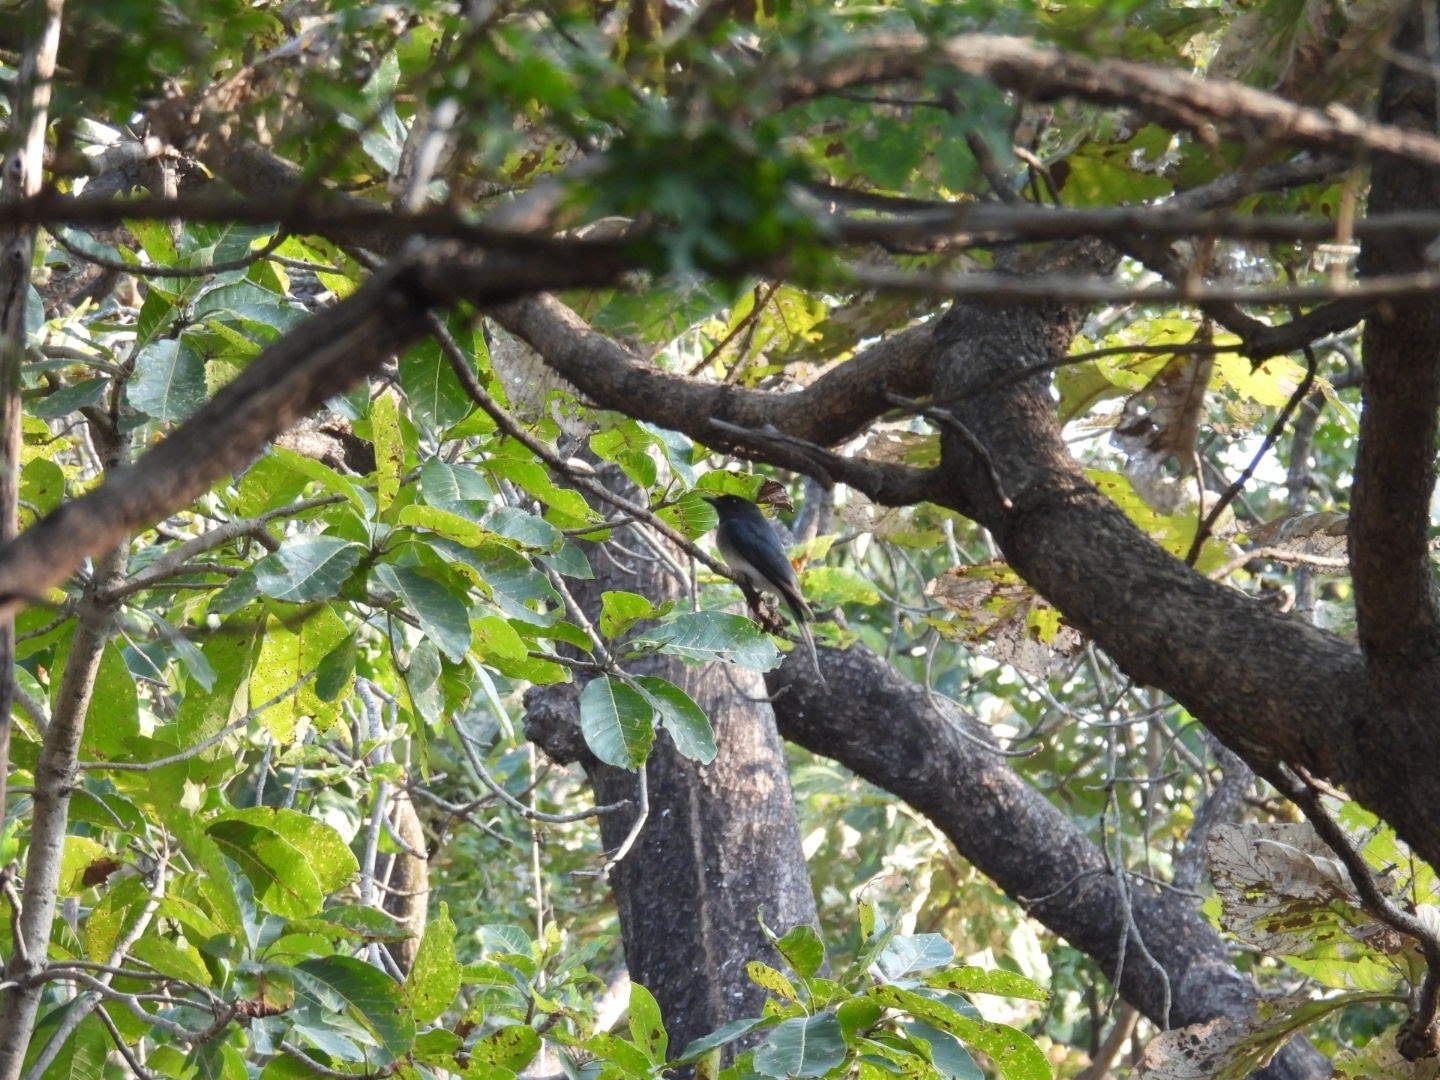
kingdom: Animalia
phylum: Chordata
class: Aves
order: Passeriformes
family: Dicruridae
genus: Dicrurus
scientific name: Dicrurus caerulescens
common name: White-bellied drongo
